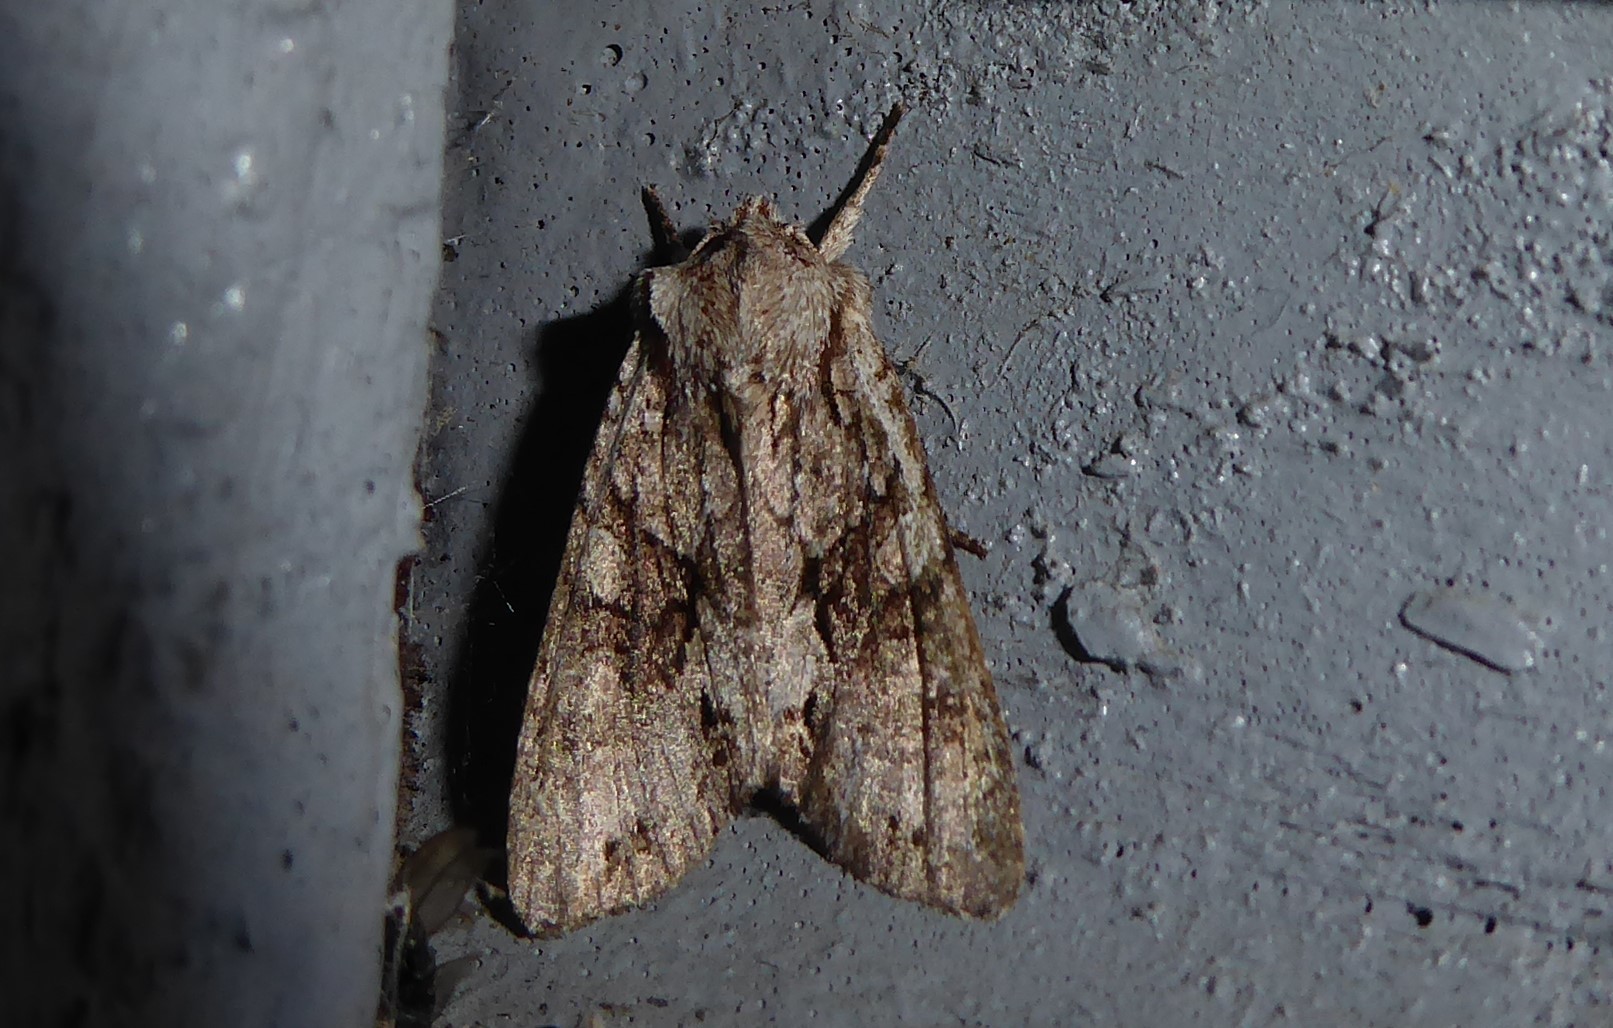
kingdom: Animalia
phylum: Arthropoda
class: Insecta
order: Lepidoptera
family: Noctuidae
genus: Ichneutica
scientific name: Ichneutica mutans
